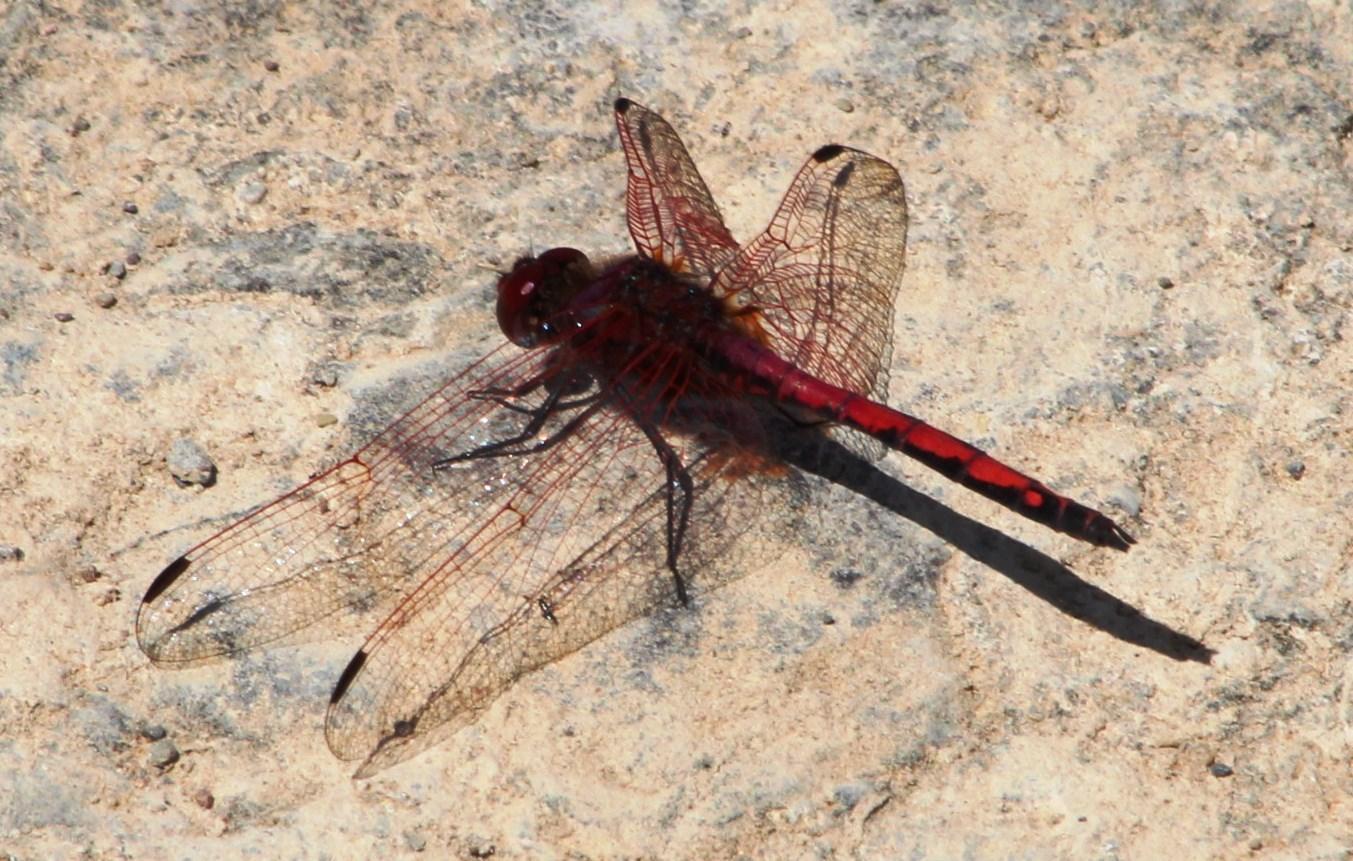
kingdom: Animalia
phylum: Arthropoda
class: Insecta
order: Odonata
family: Libellulidae
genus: Trithemis
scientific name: Trithemis arteriosa
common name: Red-veined dropwing
